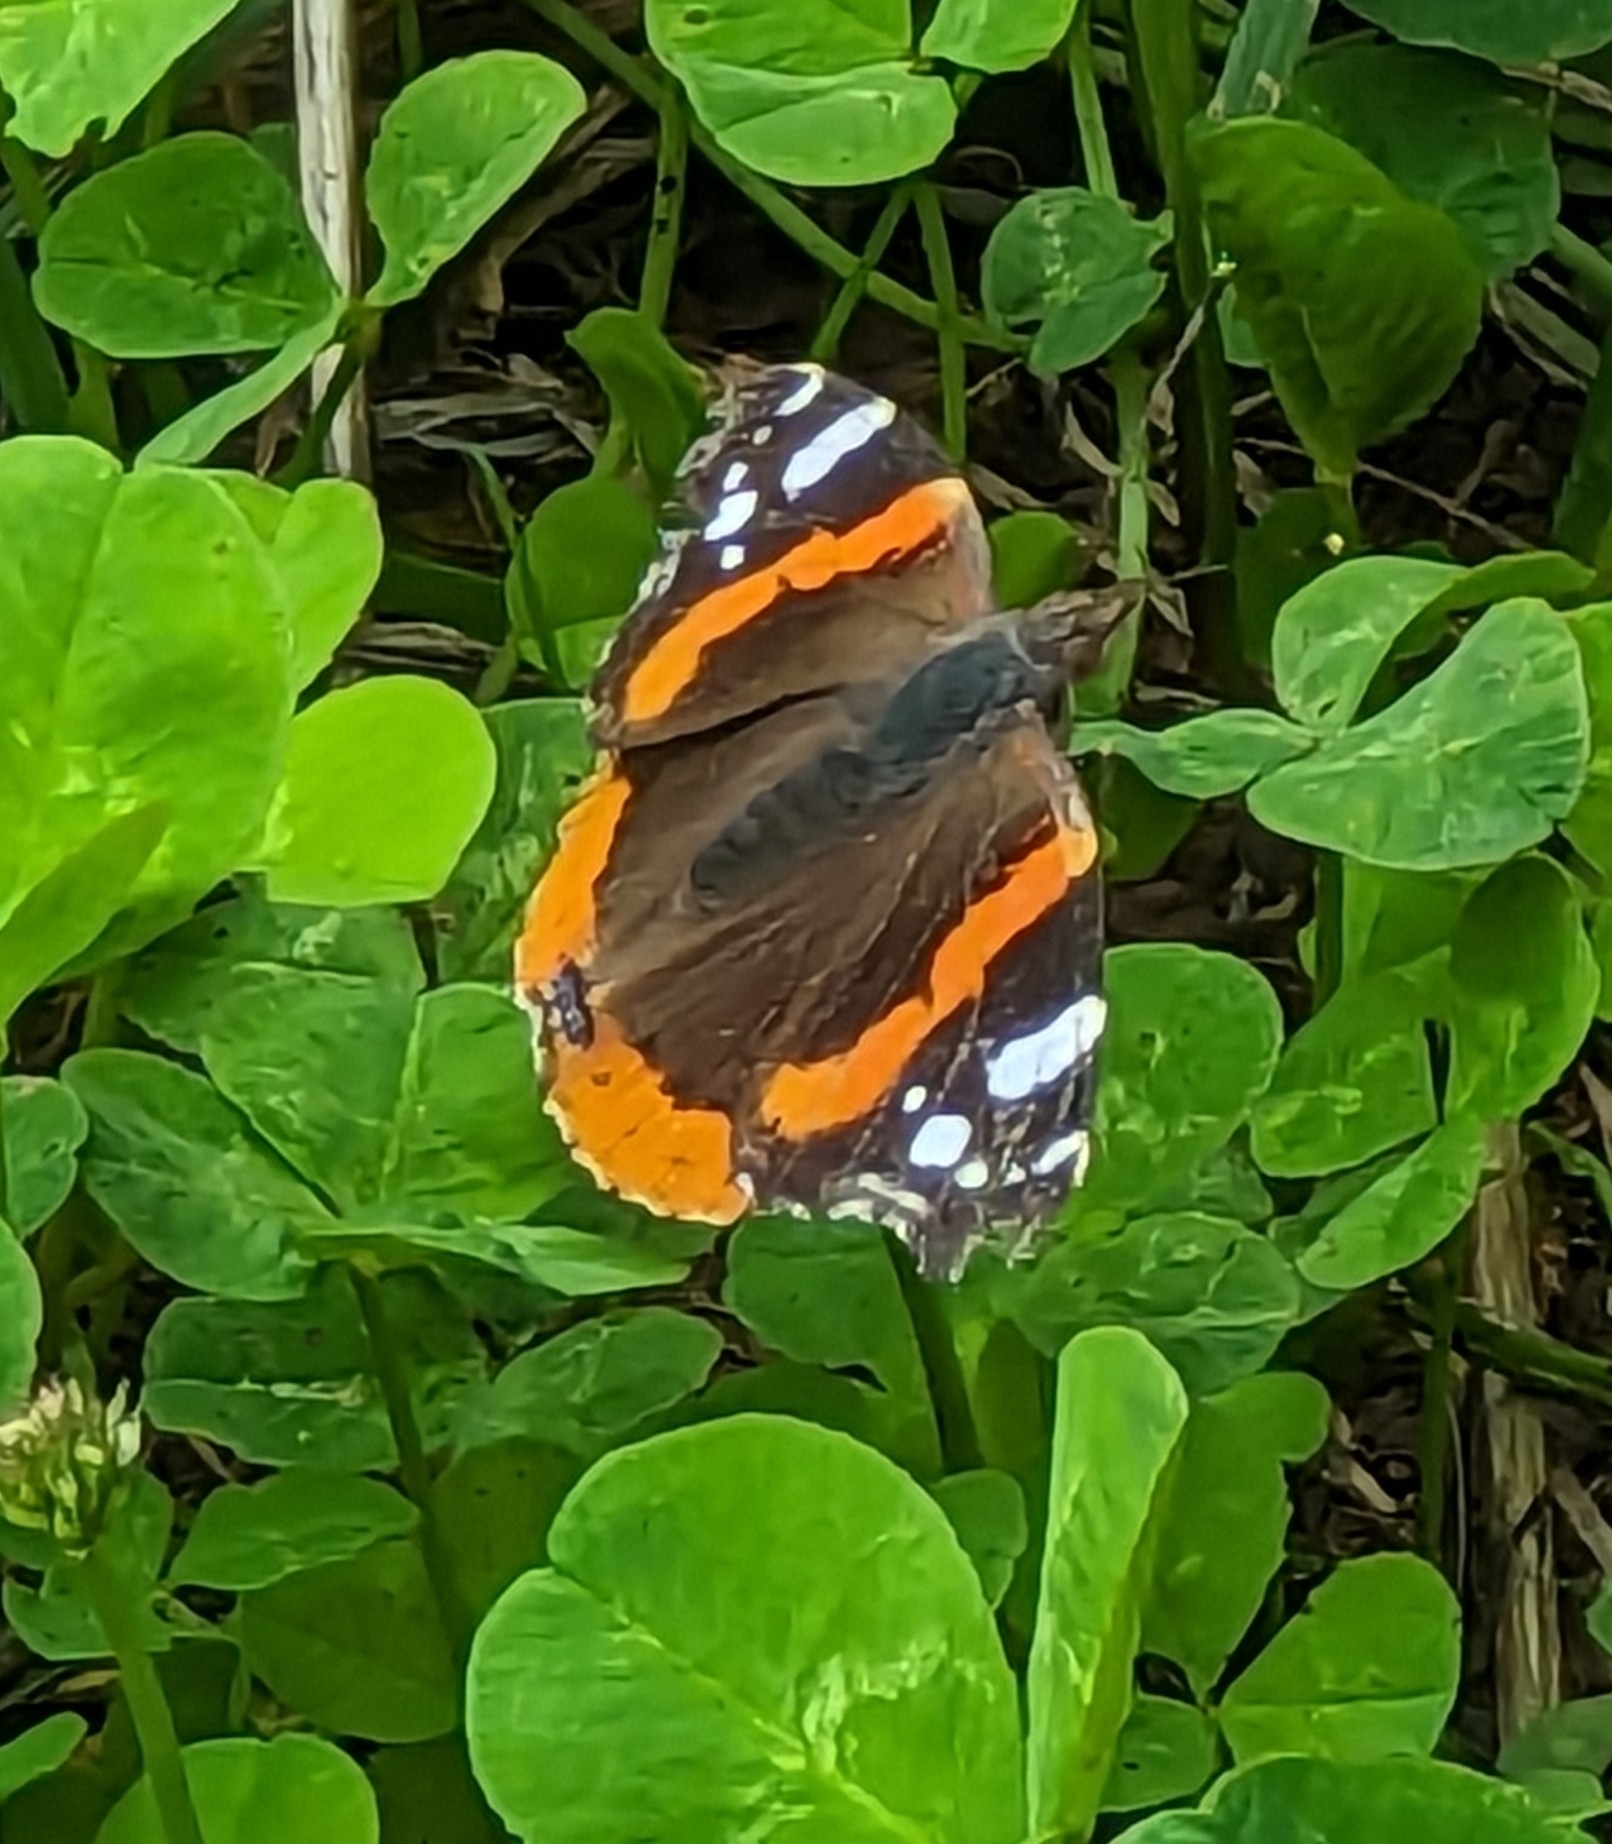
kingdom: Animalia
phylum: Arthropoda
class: Insecta
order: Lepidoptera
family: Nymphalidae
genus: Vanessa
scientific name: Vanessa atalanta
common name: Red admiral
